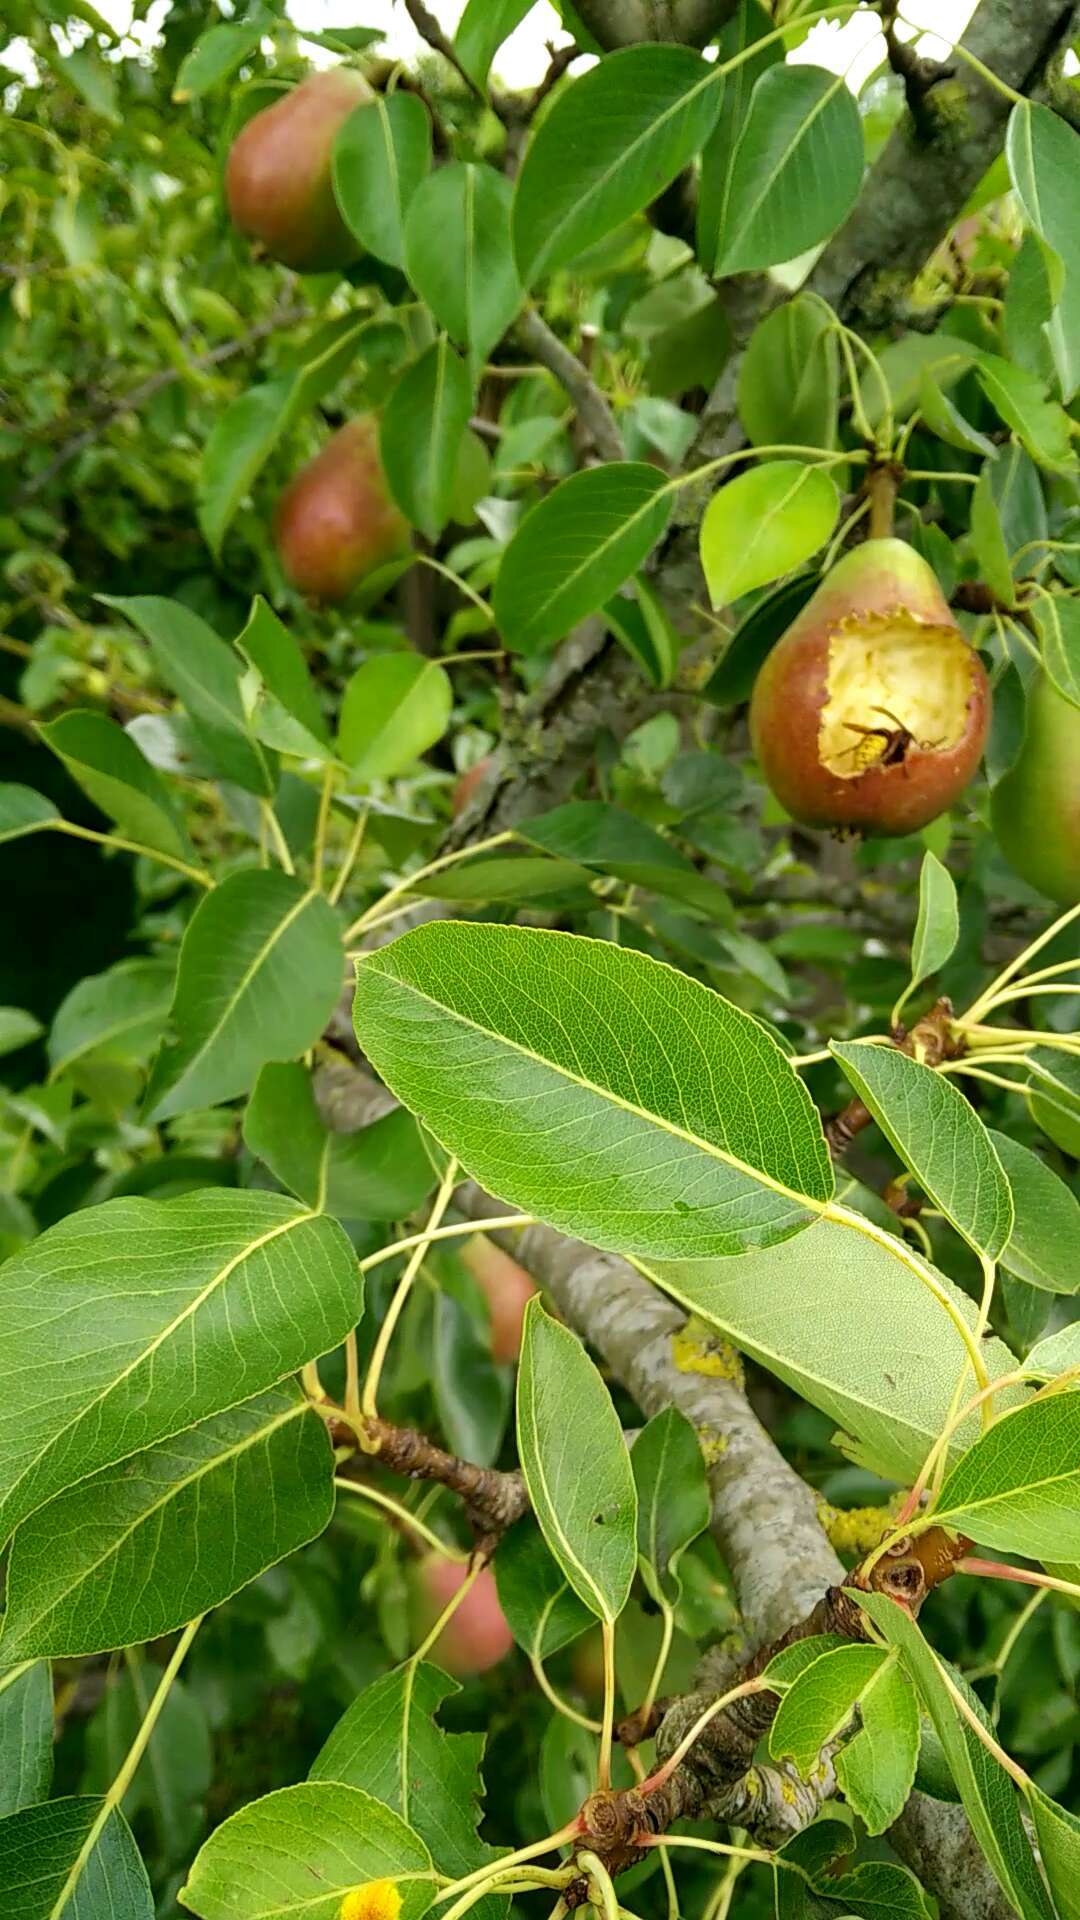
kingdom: Animalia
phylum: Arthropoda
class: Insecta
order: Hymenoptera
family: Vespidae
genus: Vespa
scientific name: Vespa crabro
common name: Hornet
